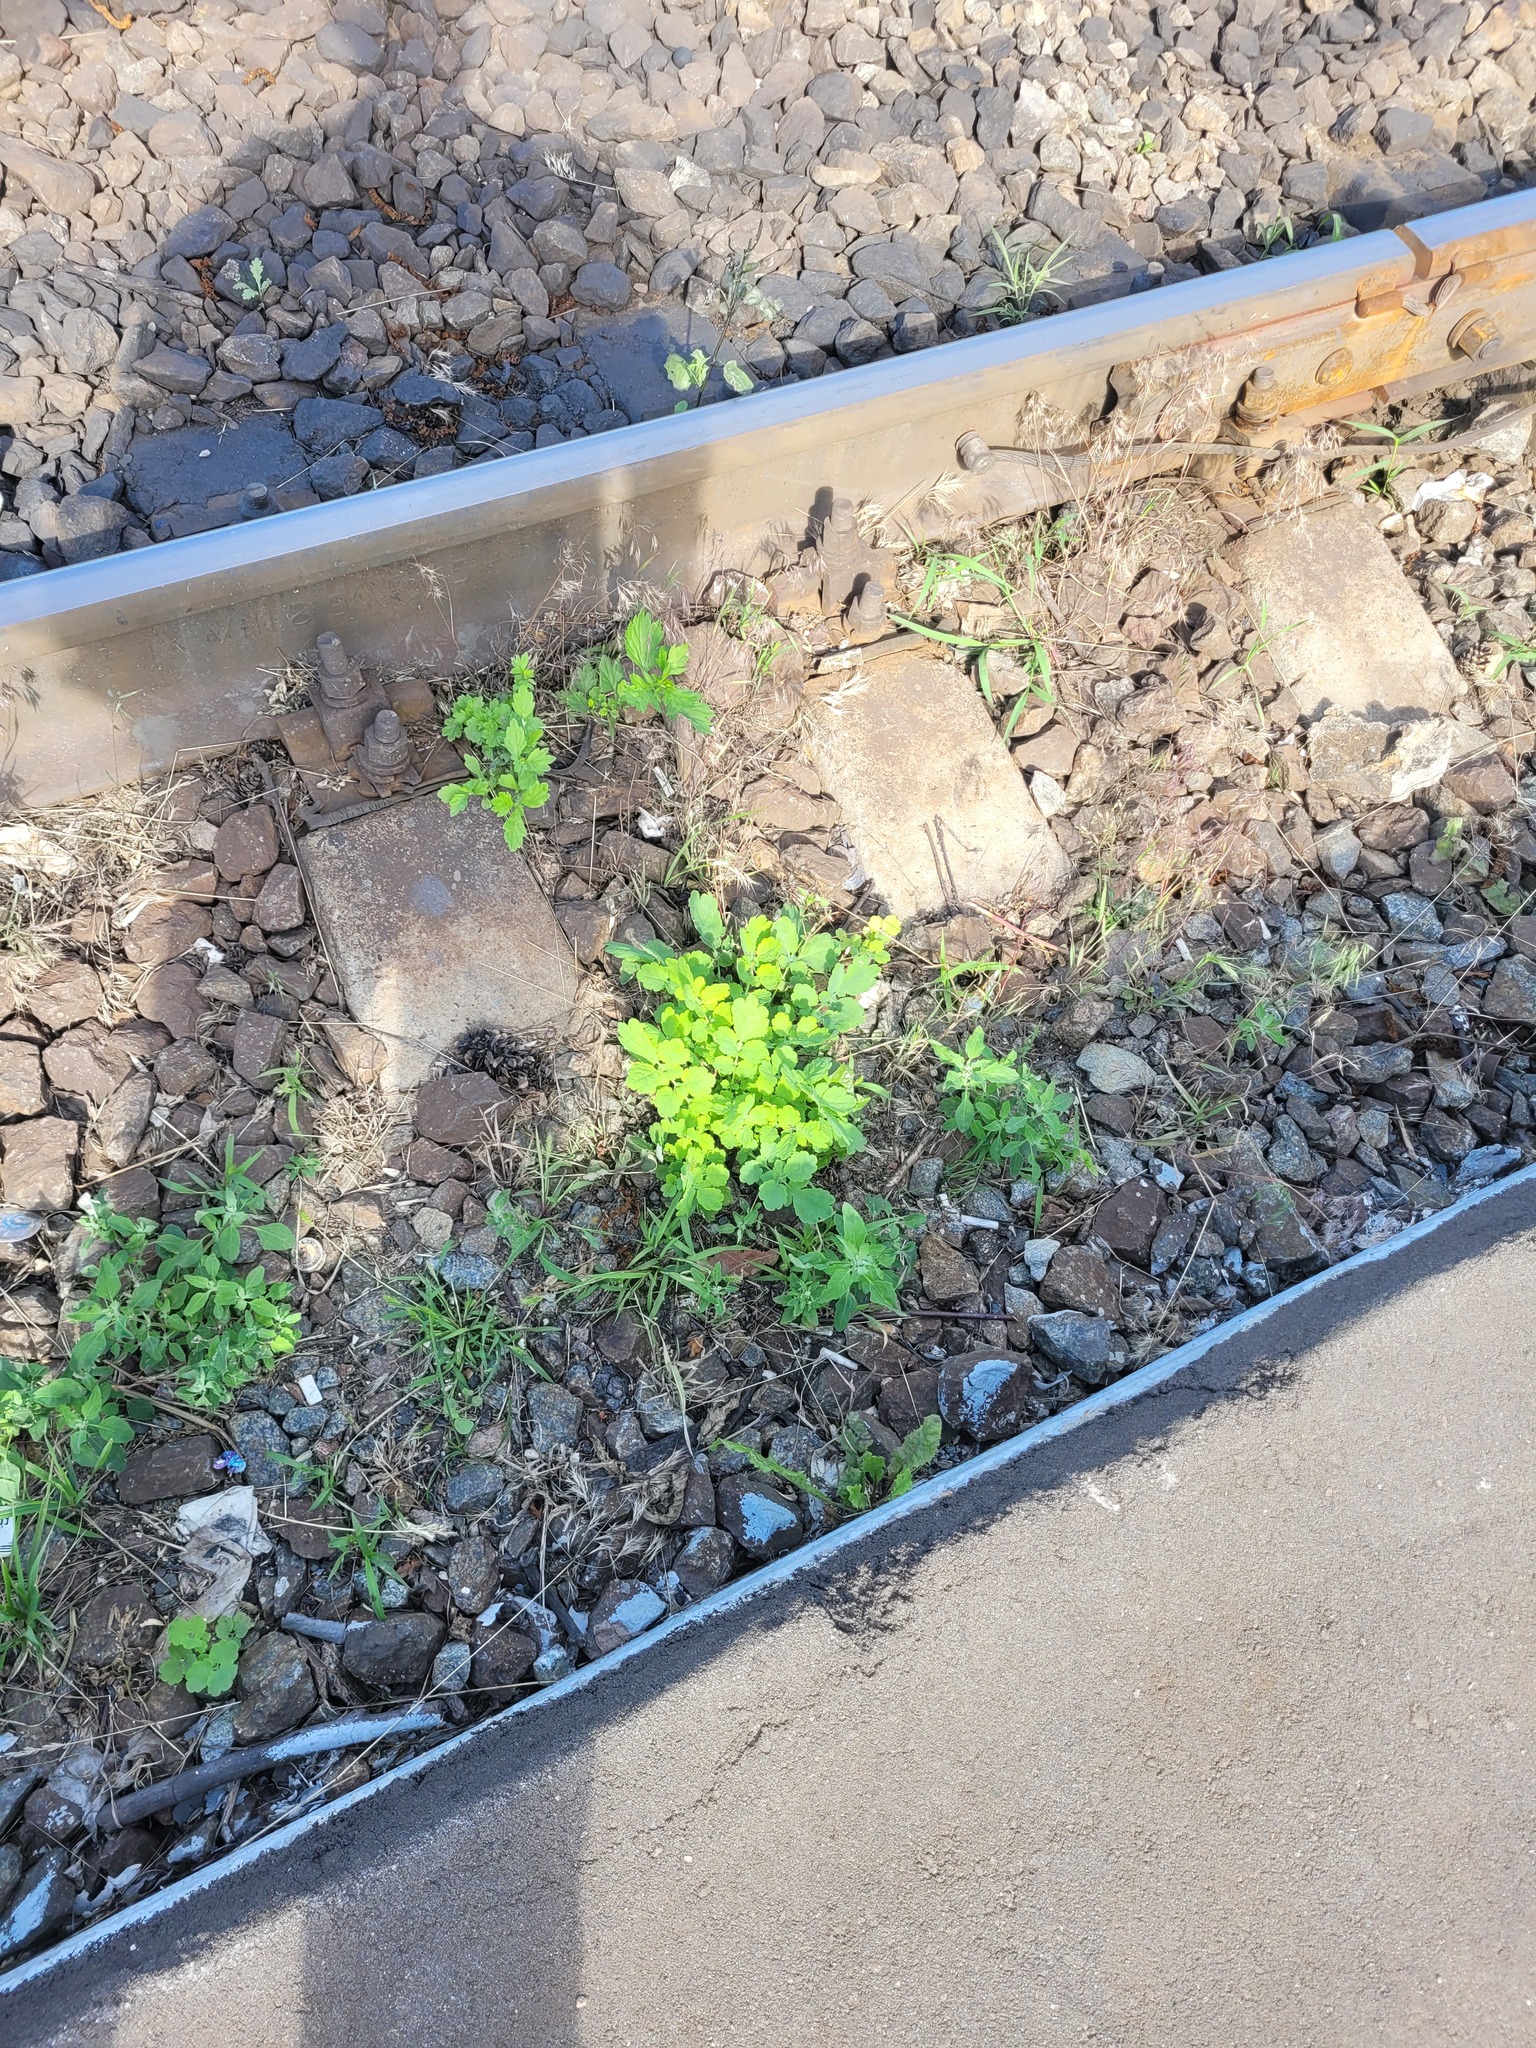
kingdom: Plantae
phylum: Tracheophyta
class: Magnoliopsida
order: Ranunculales
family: Papaveraceae
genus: Chelidonium
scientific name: Chelidonium majus
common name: Greater celandine
